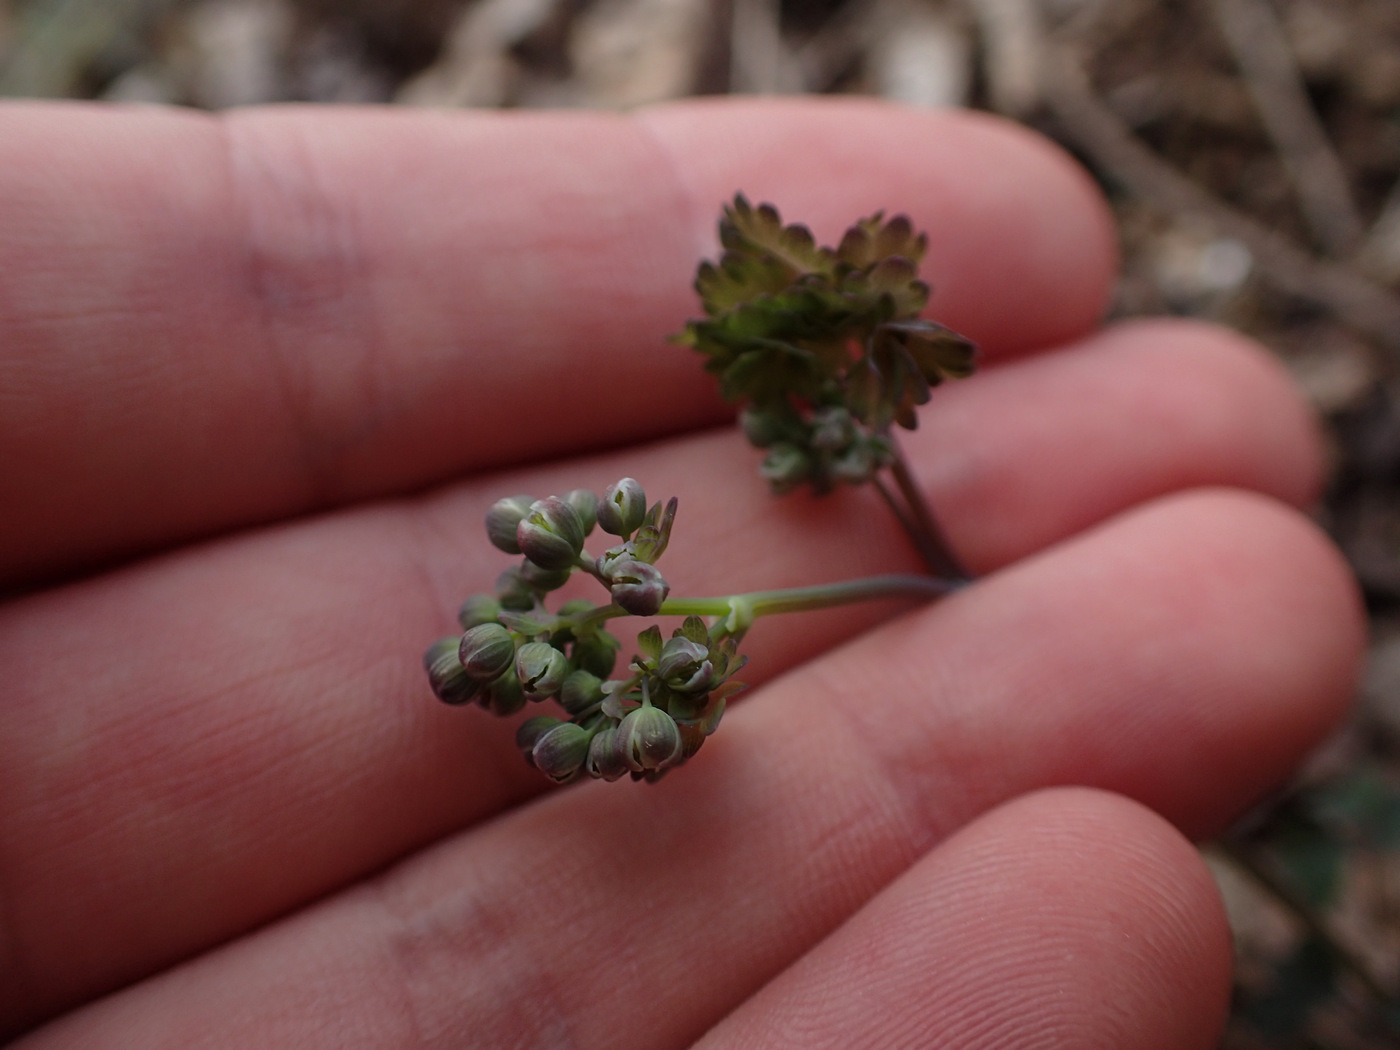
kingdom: Plantae
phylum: Tracheophyta
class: Magnoliopsida
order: Ranunculales
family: Ranunculaceae
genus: Thalictrum
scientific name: Thalictrum dioicum
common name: Early meadow-rue
